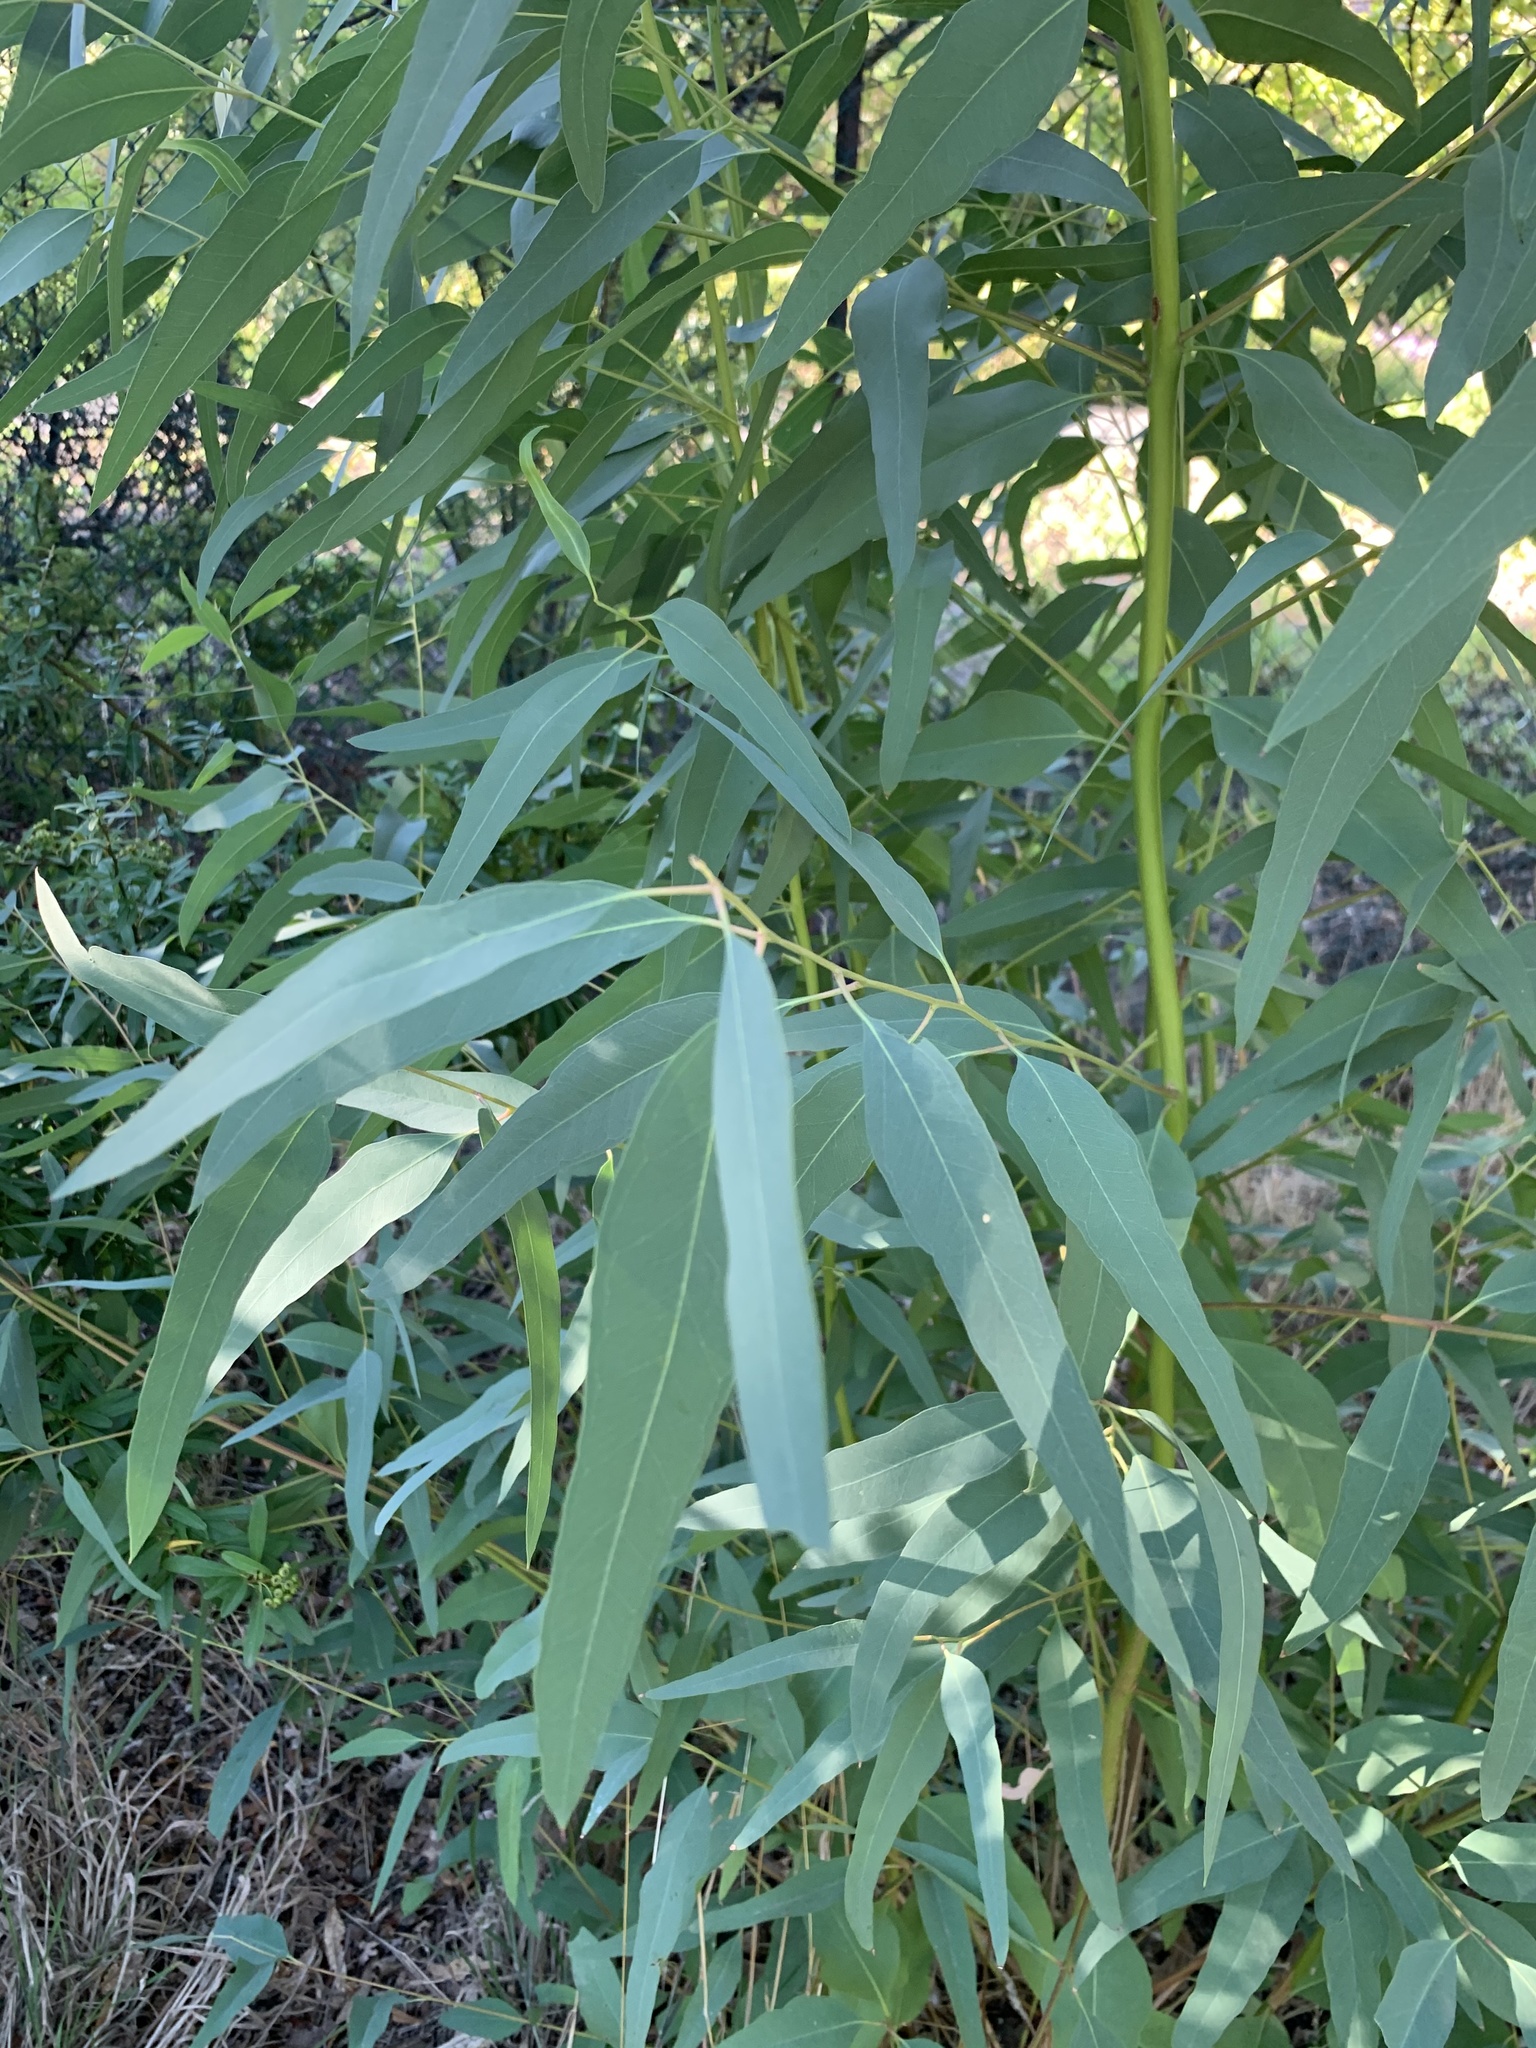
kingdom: Plantae
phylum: Tracheophyta
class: Magnoliopsida
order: Myrtales
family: Myrtaceae
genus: Eucalyptus
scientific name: Eucalyptus camaldulensis
